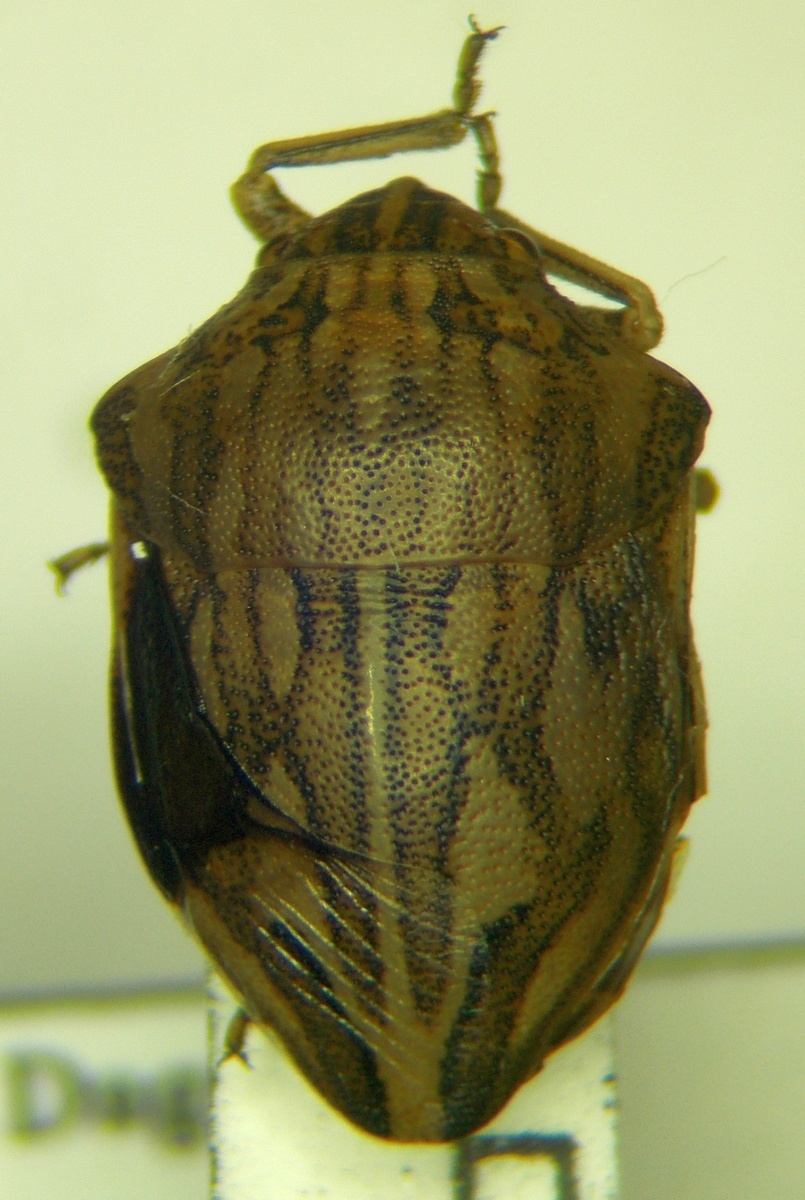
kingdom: Animalia
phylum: Arthropoda
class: Insecta
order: Hemiptera
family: Scutelleridae
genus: Odontotarsus
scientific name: Odontotarsus robustus
